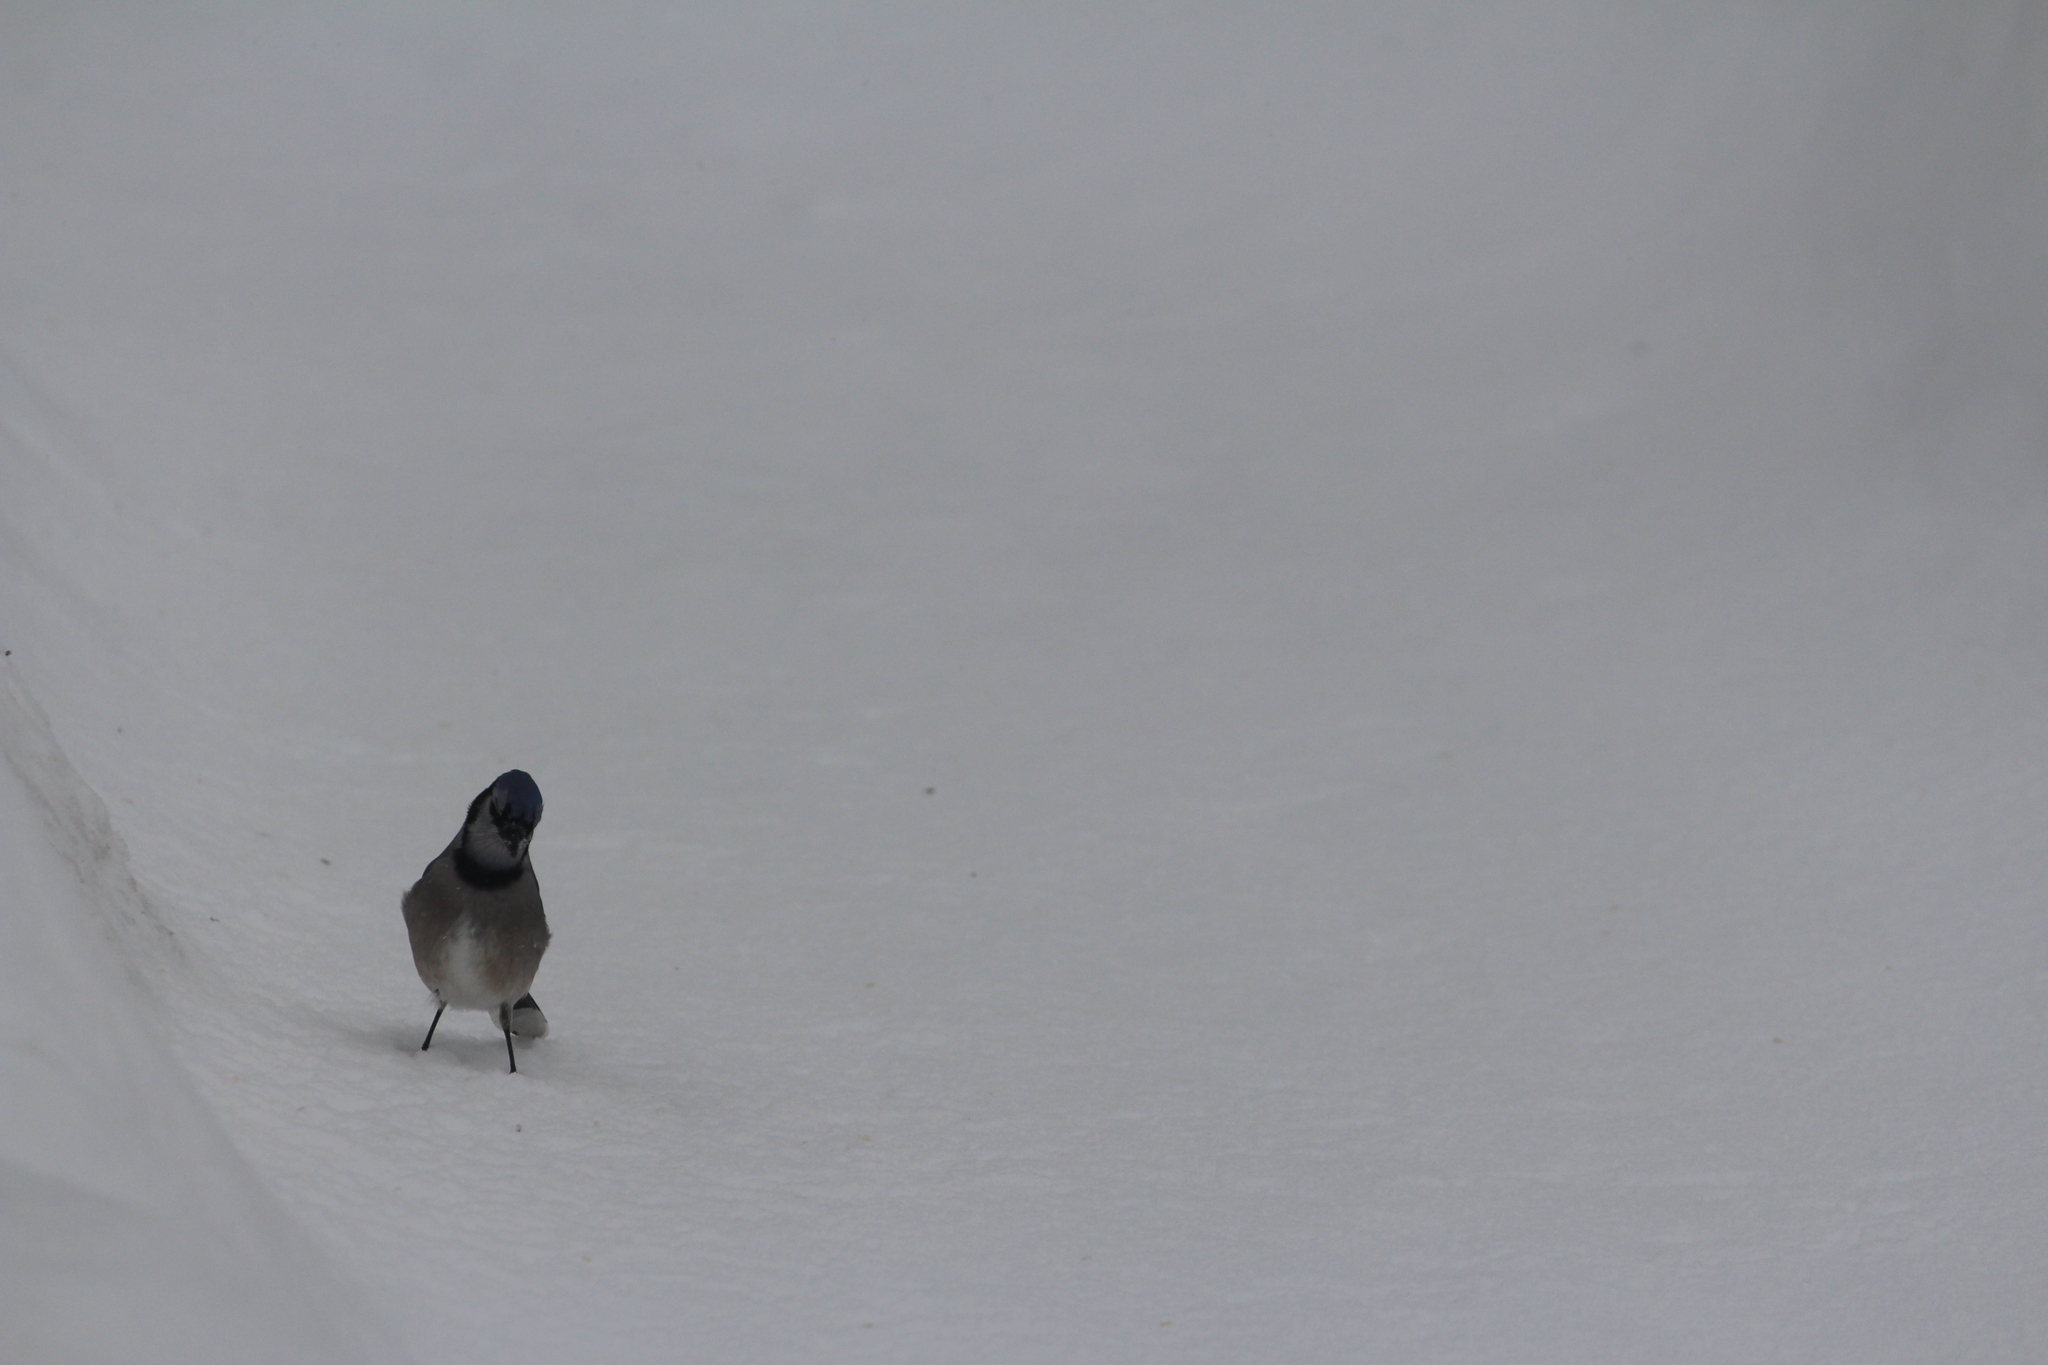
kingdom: Animalia
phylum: Chordata
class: Aves
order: Passeriformes
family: Corvidae
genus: Cyanocitta
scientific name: Cyanocitta cristata
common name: Blue jay
